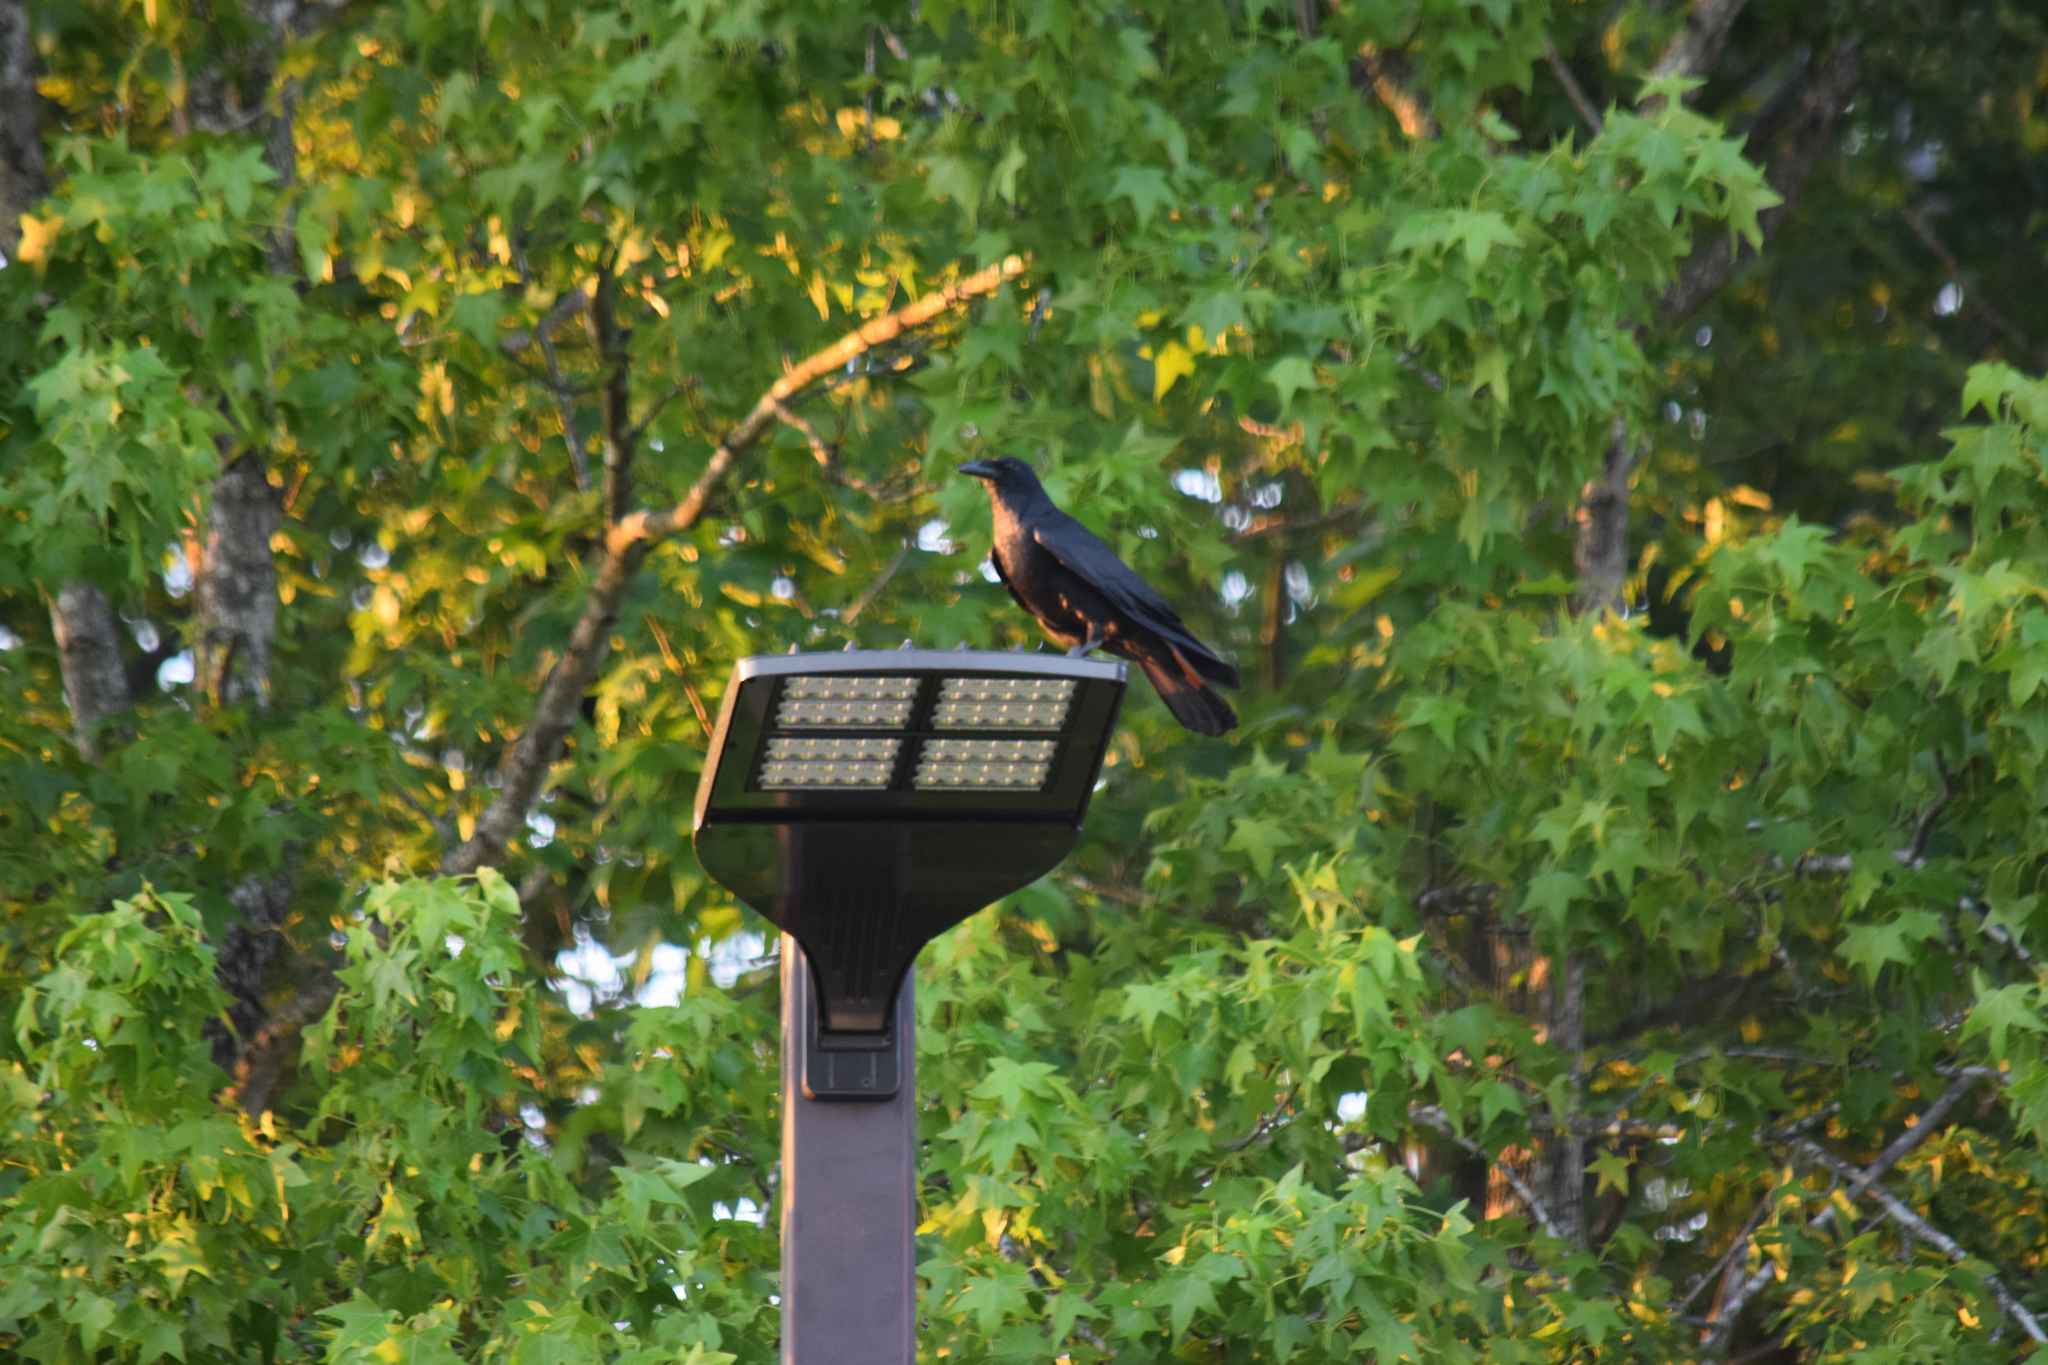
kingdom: Animalia
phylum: Chordata
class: Aves
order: Passeriformes
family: Corvidae
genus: Corvus
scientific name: Corvus ossifragus
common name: Fish crow
